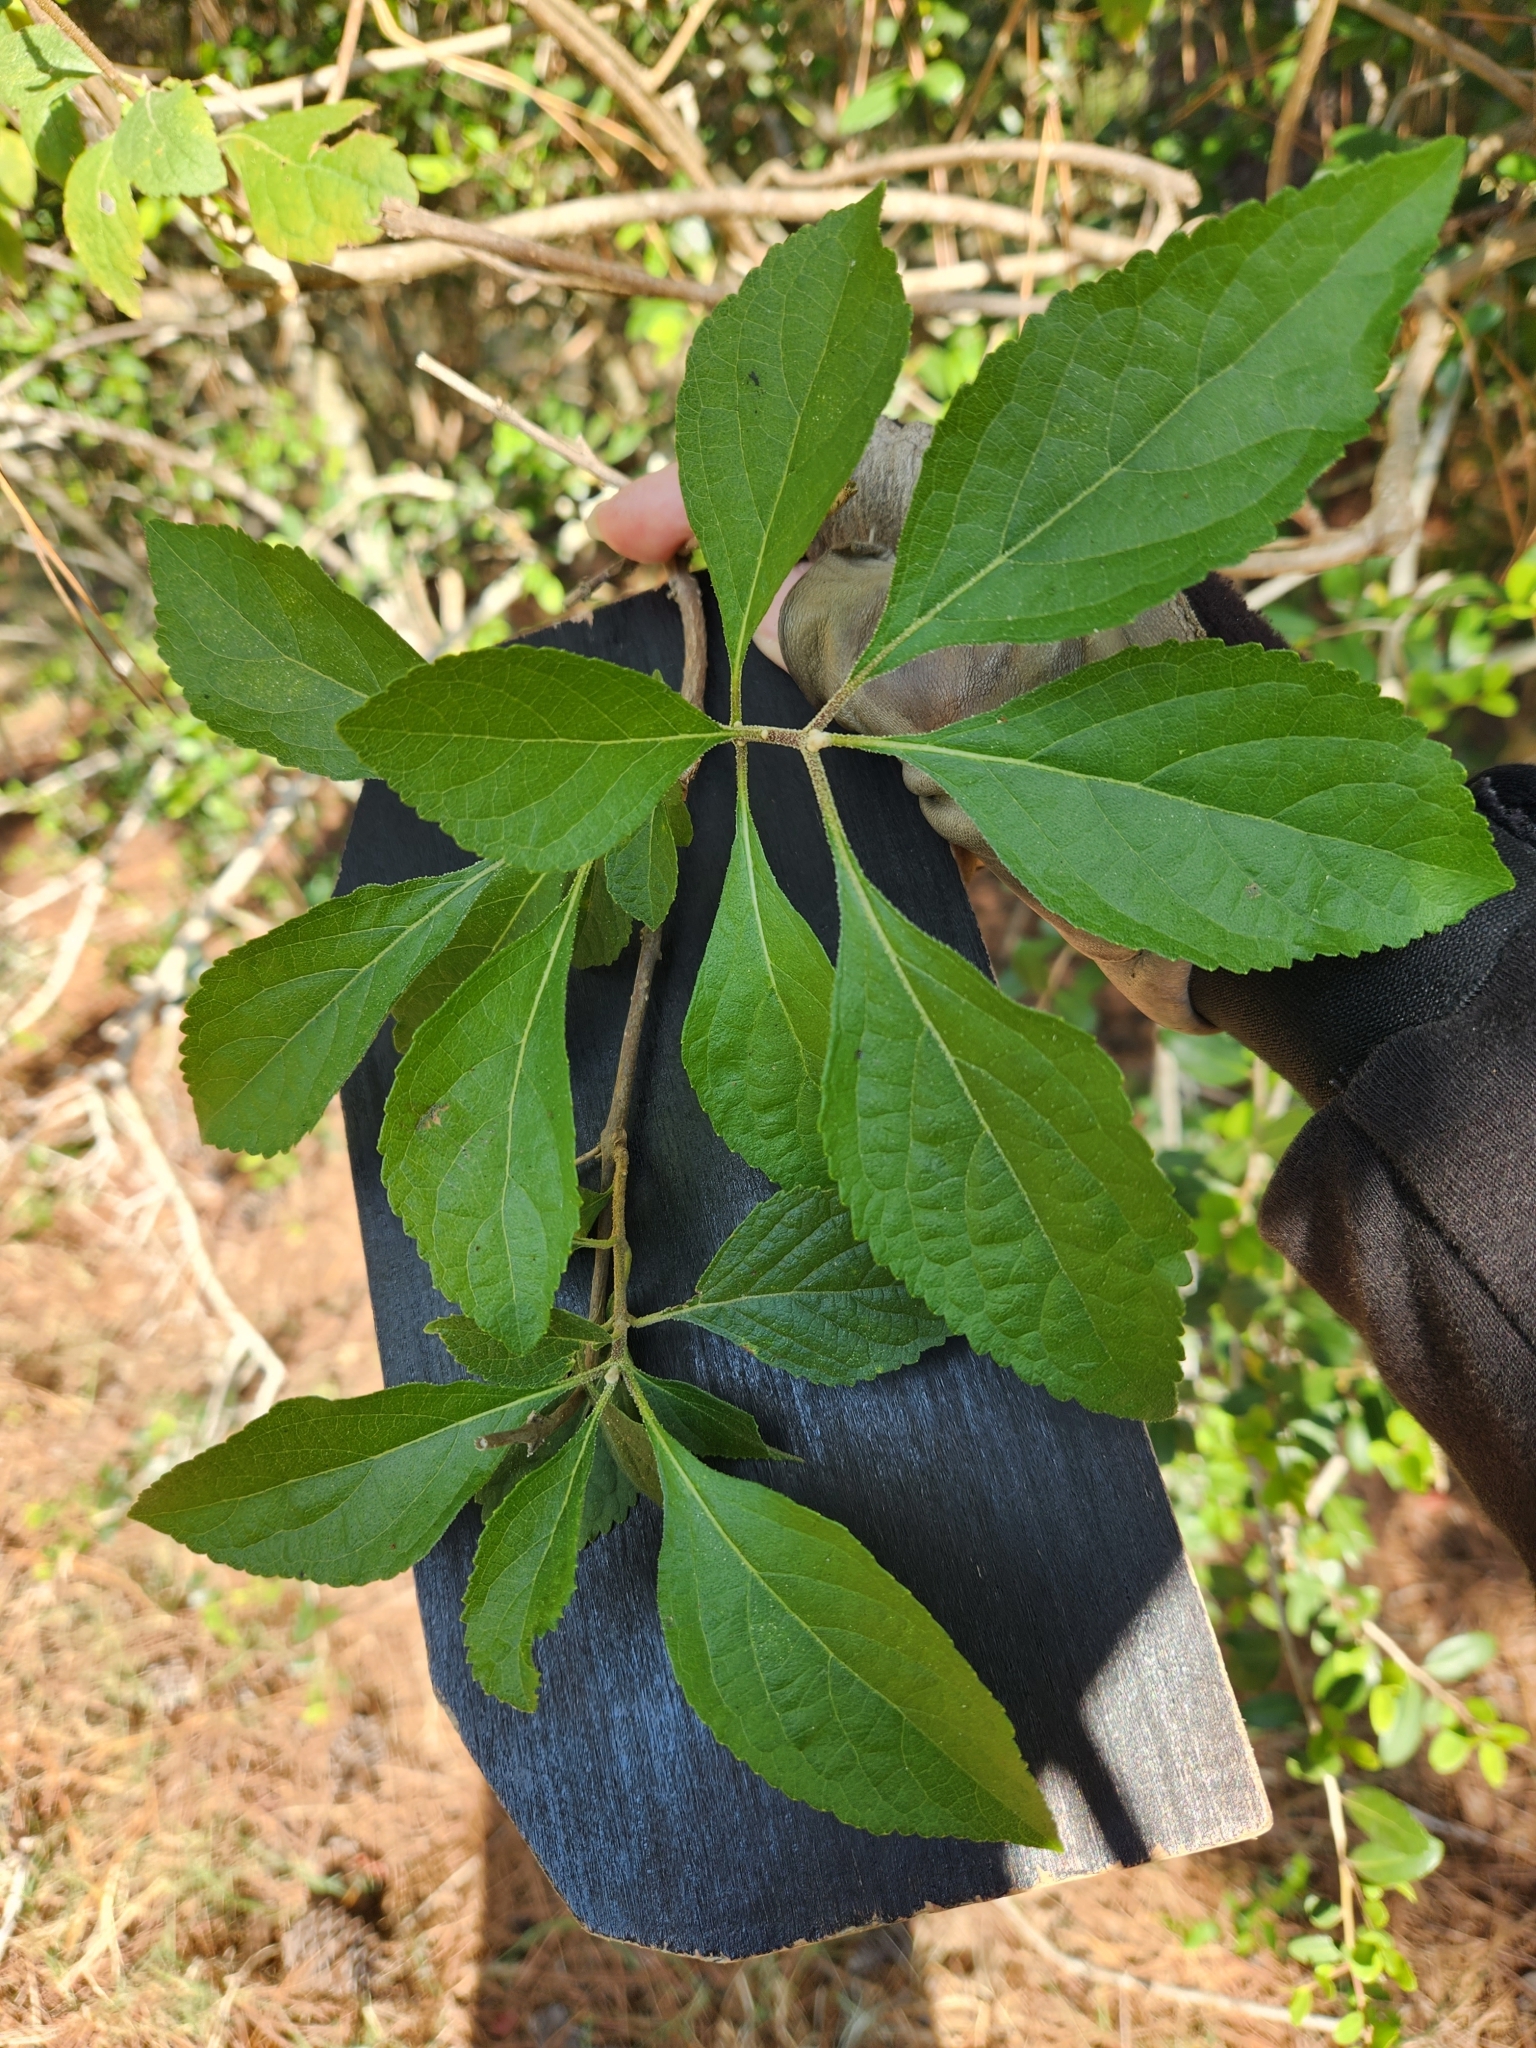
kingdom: Plantae
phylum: Tracheophyta
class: Magnoliopsida
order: Lamiales
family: Lamiaceae
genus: Callicarpa
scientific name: Callicarpa americana
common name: American beautyberry
